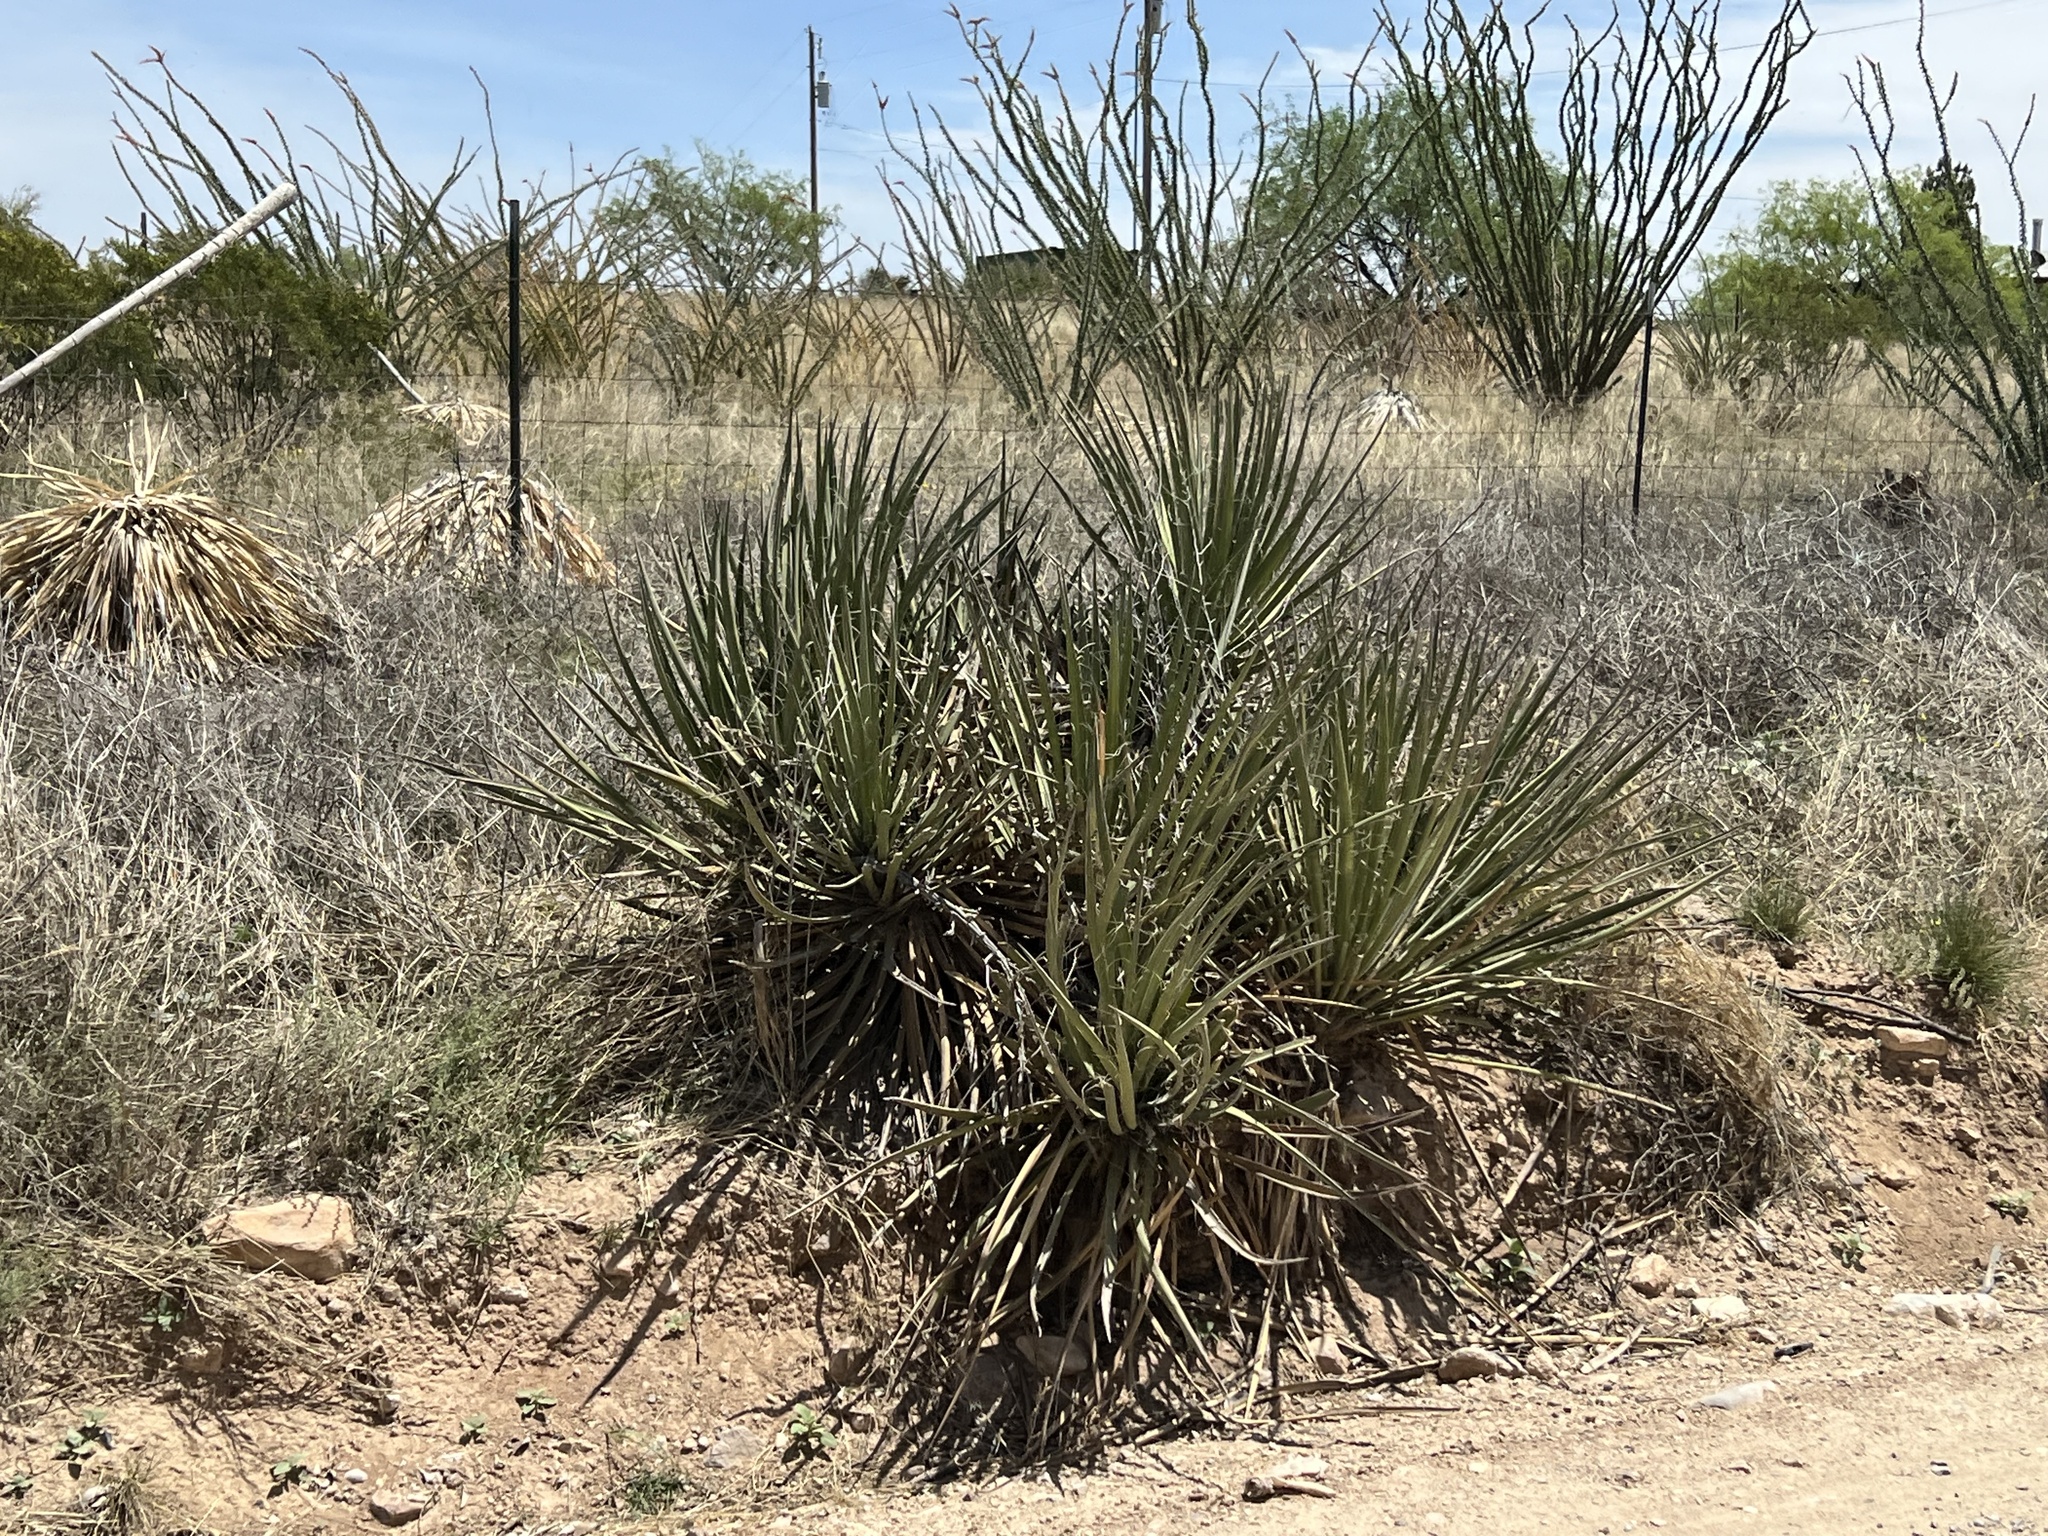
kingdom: Plantae
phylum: Tracheophyta
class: Liliopsida
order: Asparagales
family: Asparagaceae
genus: Yucca
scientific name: Yucca baccata
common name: Banana yucca
